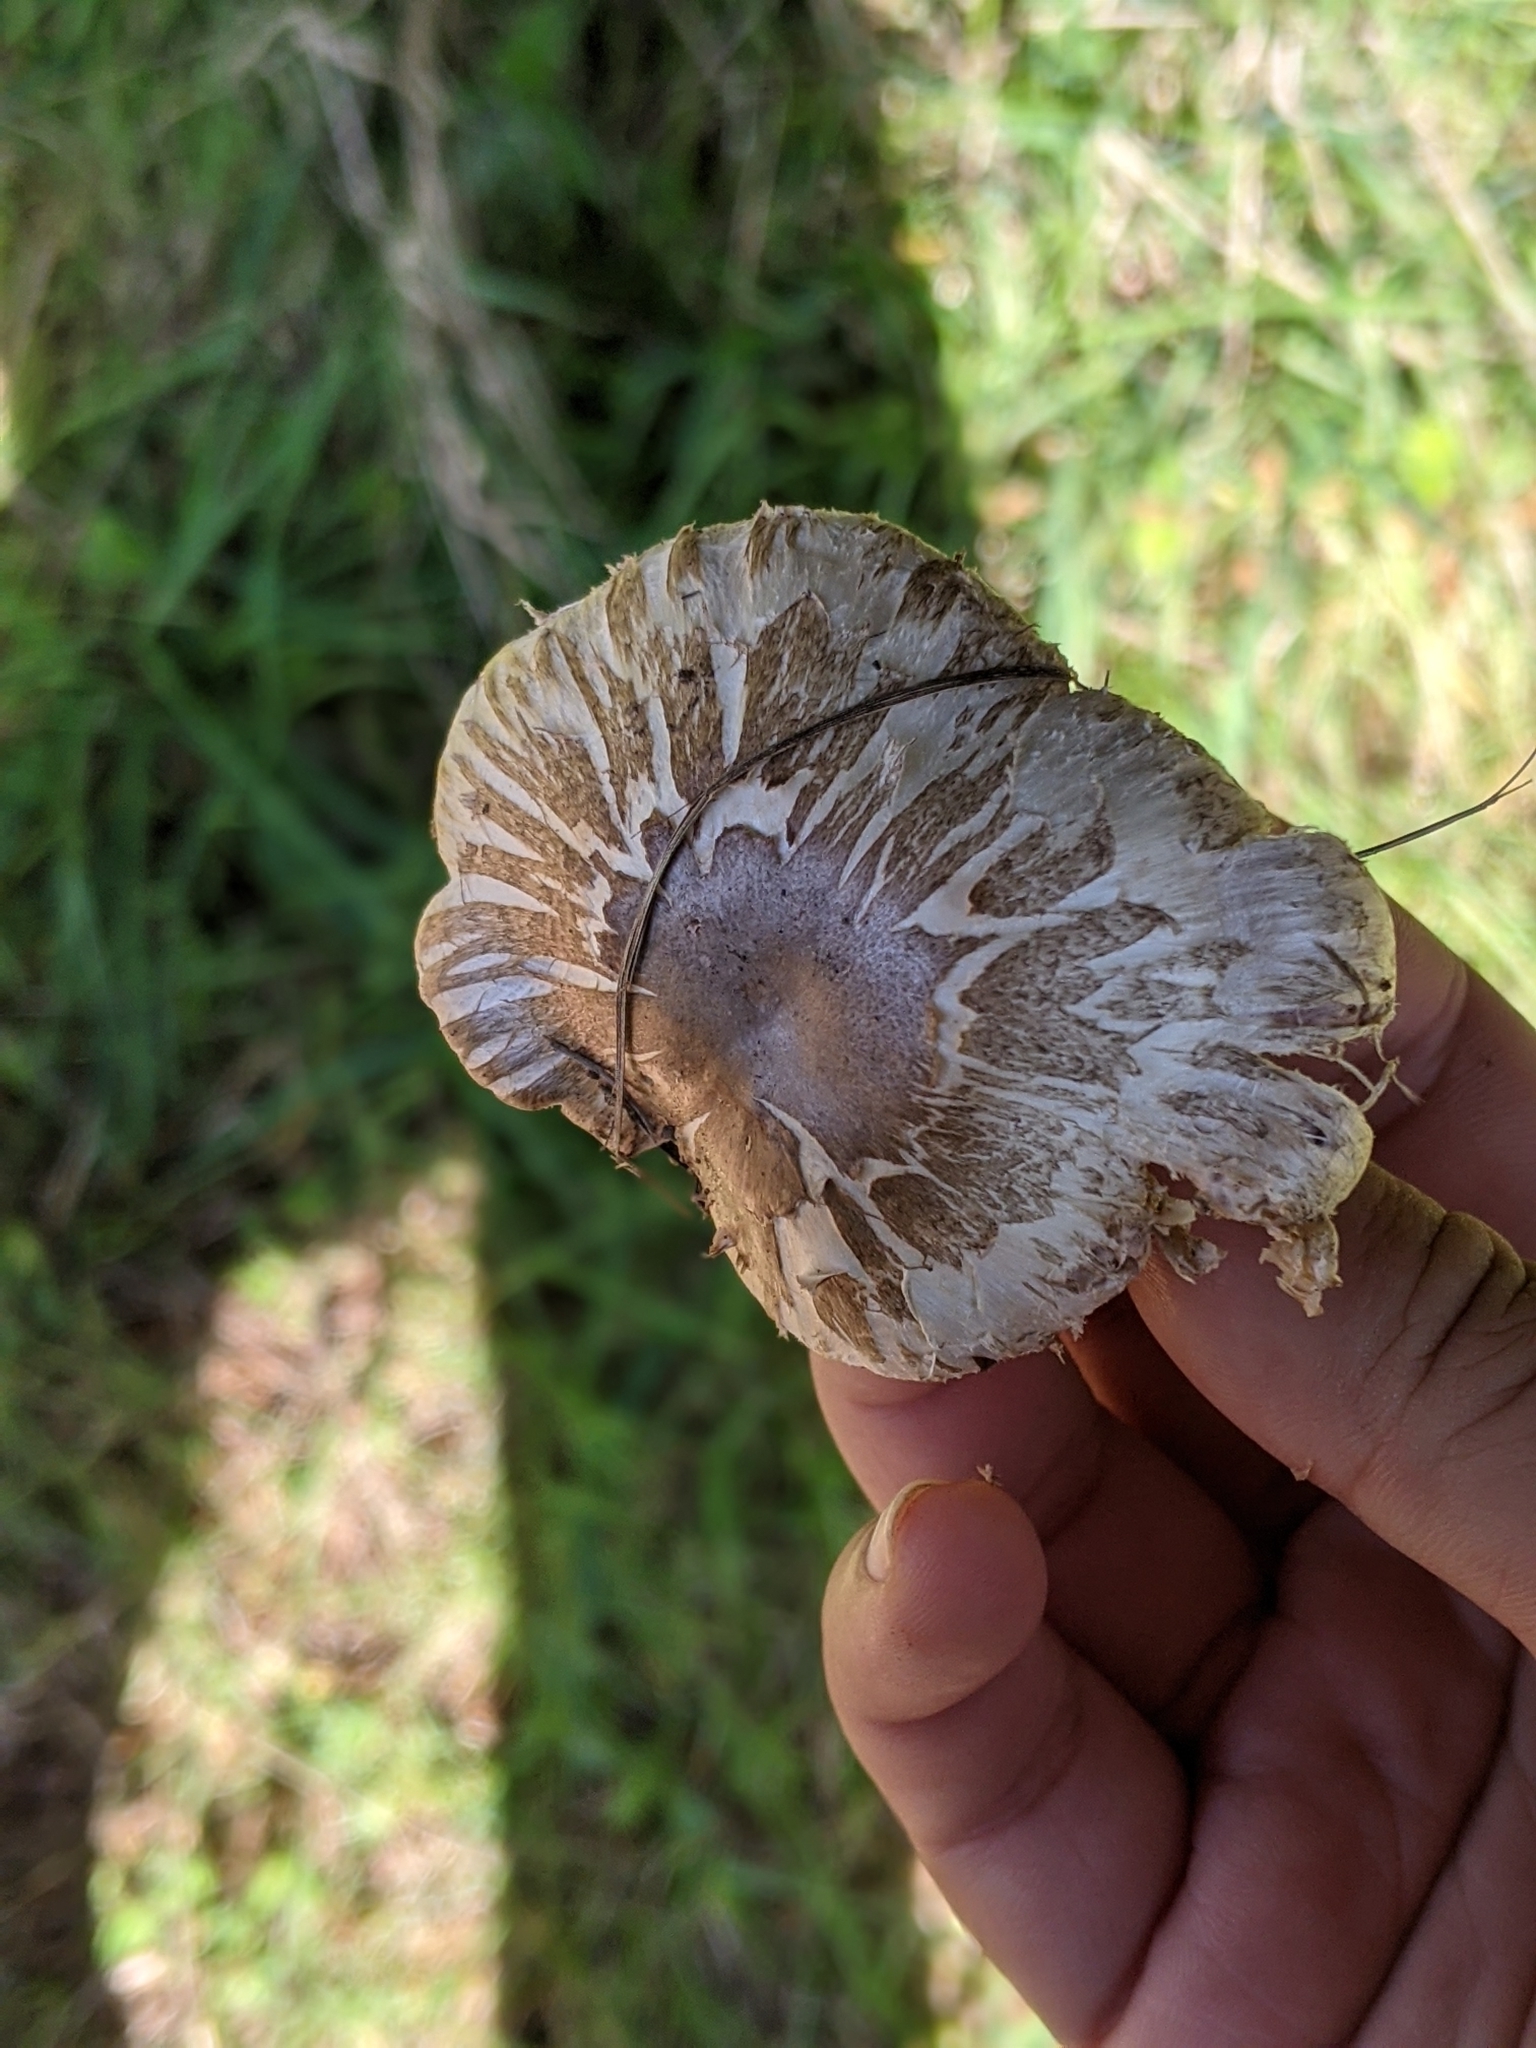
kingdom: Fungi
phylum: Basidiomycota
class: Agaricomycetes
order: Agaricales
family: Agaricaceae
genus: Agaricus
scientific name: Agaricus incultorum
